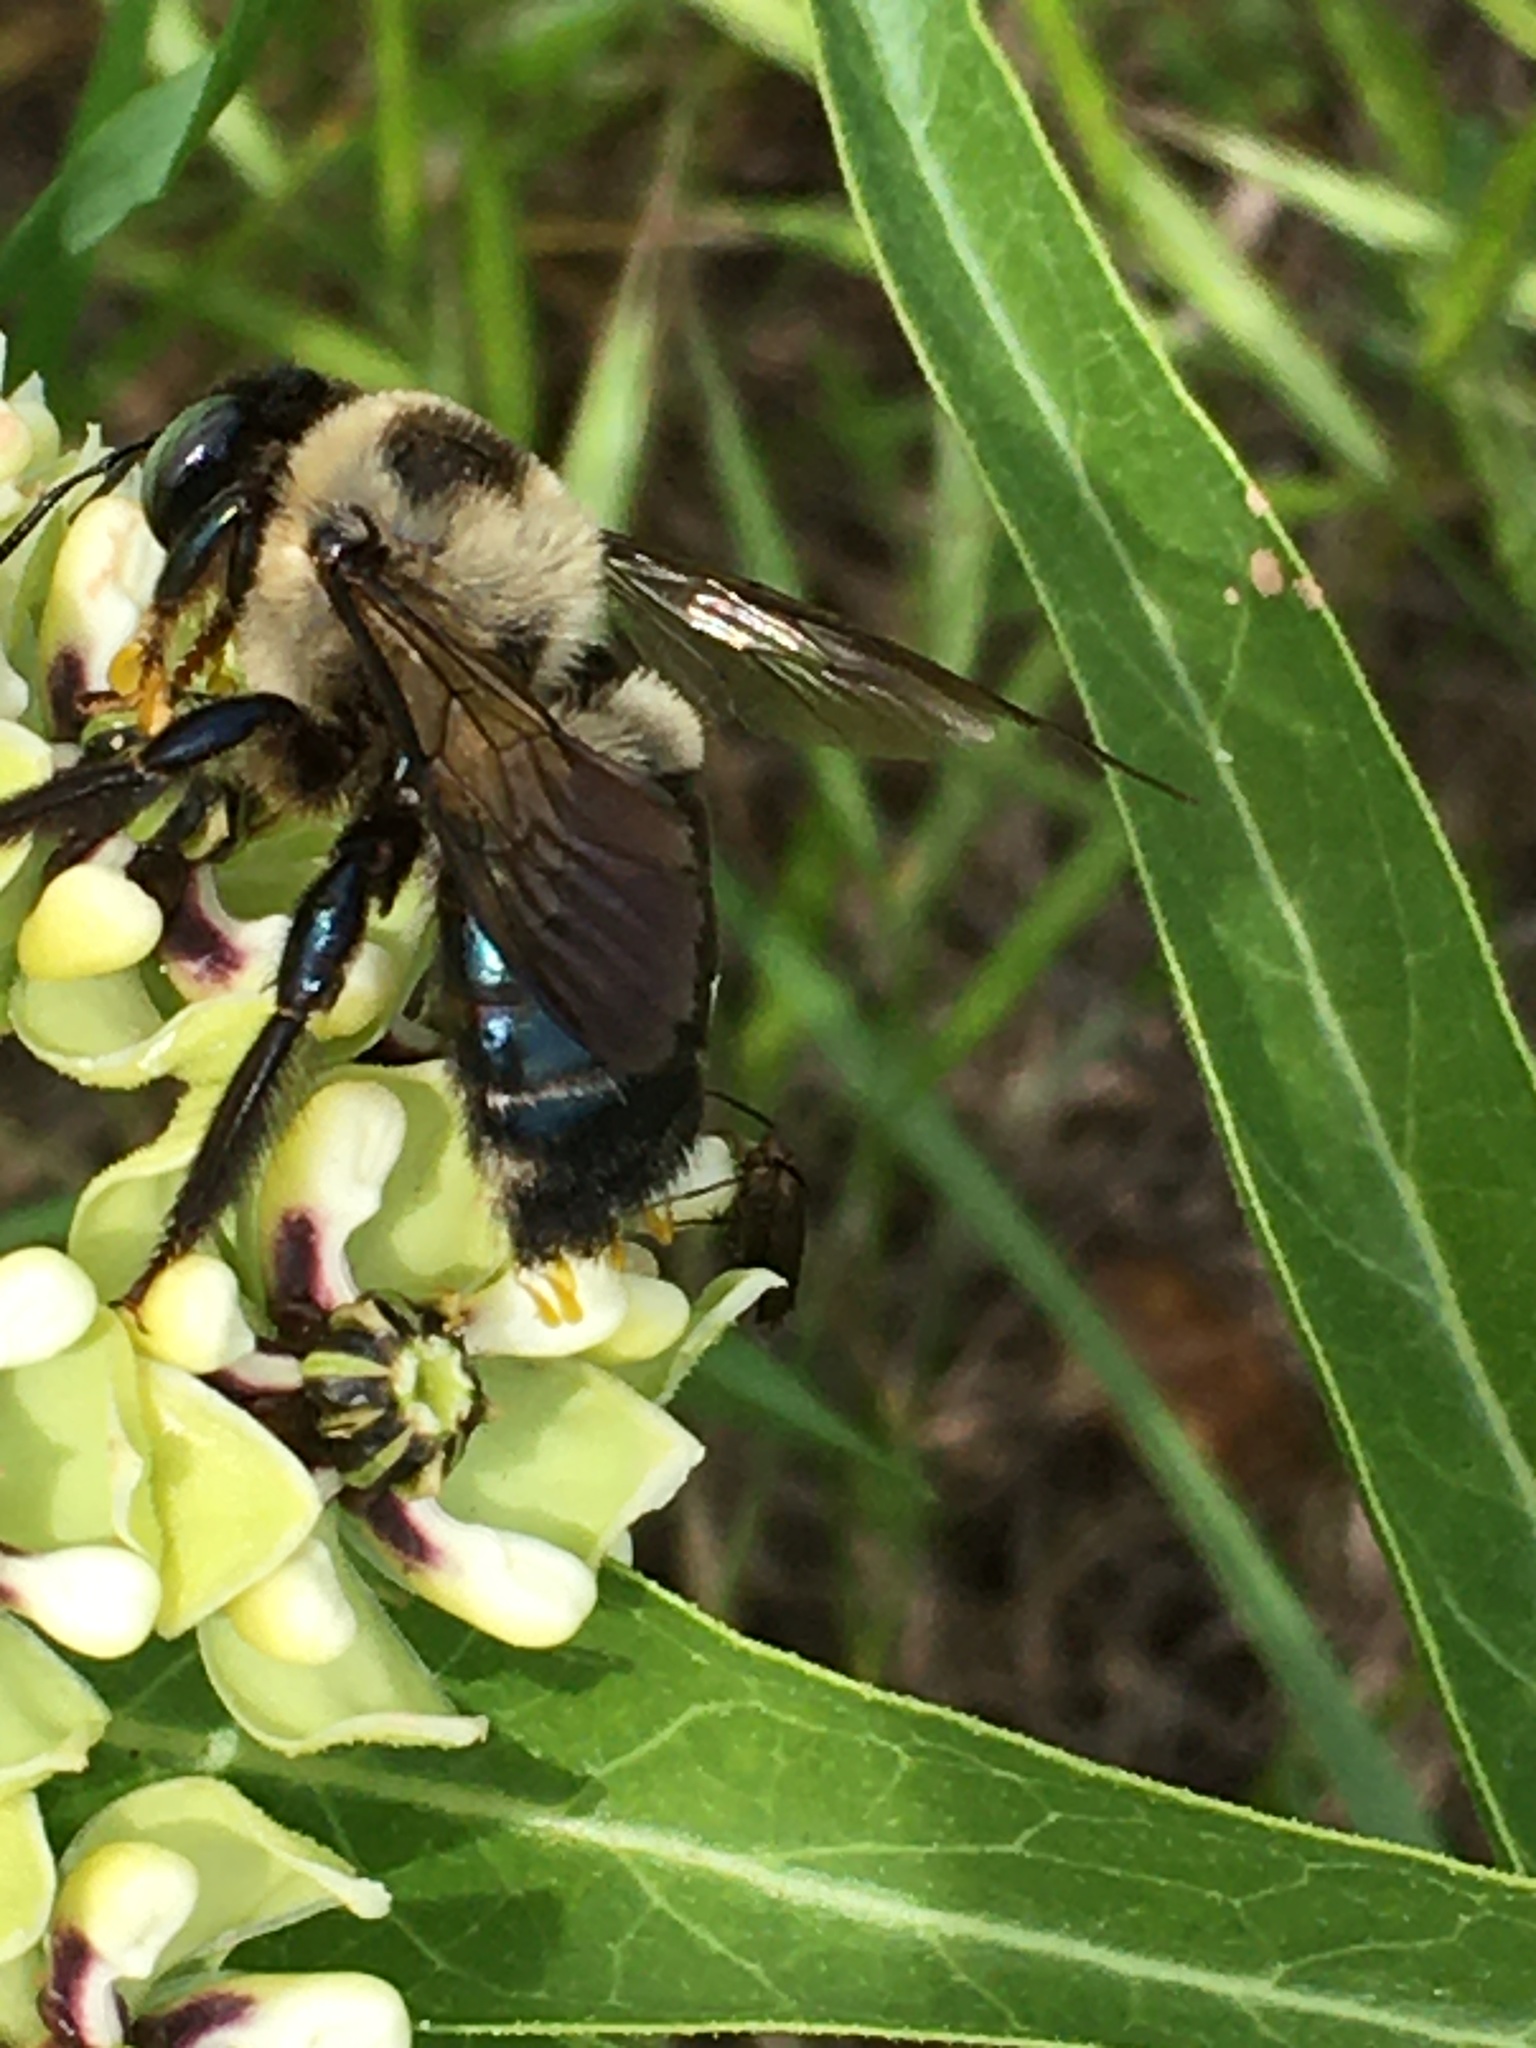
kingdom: Animalia
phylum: Arthropoda
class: Insecta
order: Hymenoptera
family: Apidae
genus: Xylocopa
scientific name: Xylocopa virginica
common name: Carpenter bee
